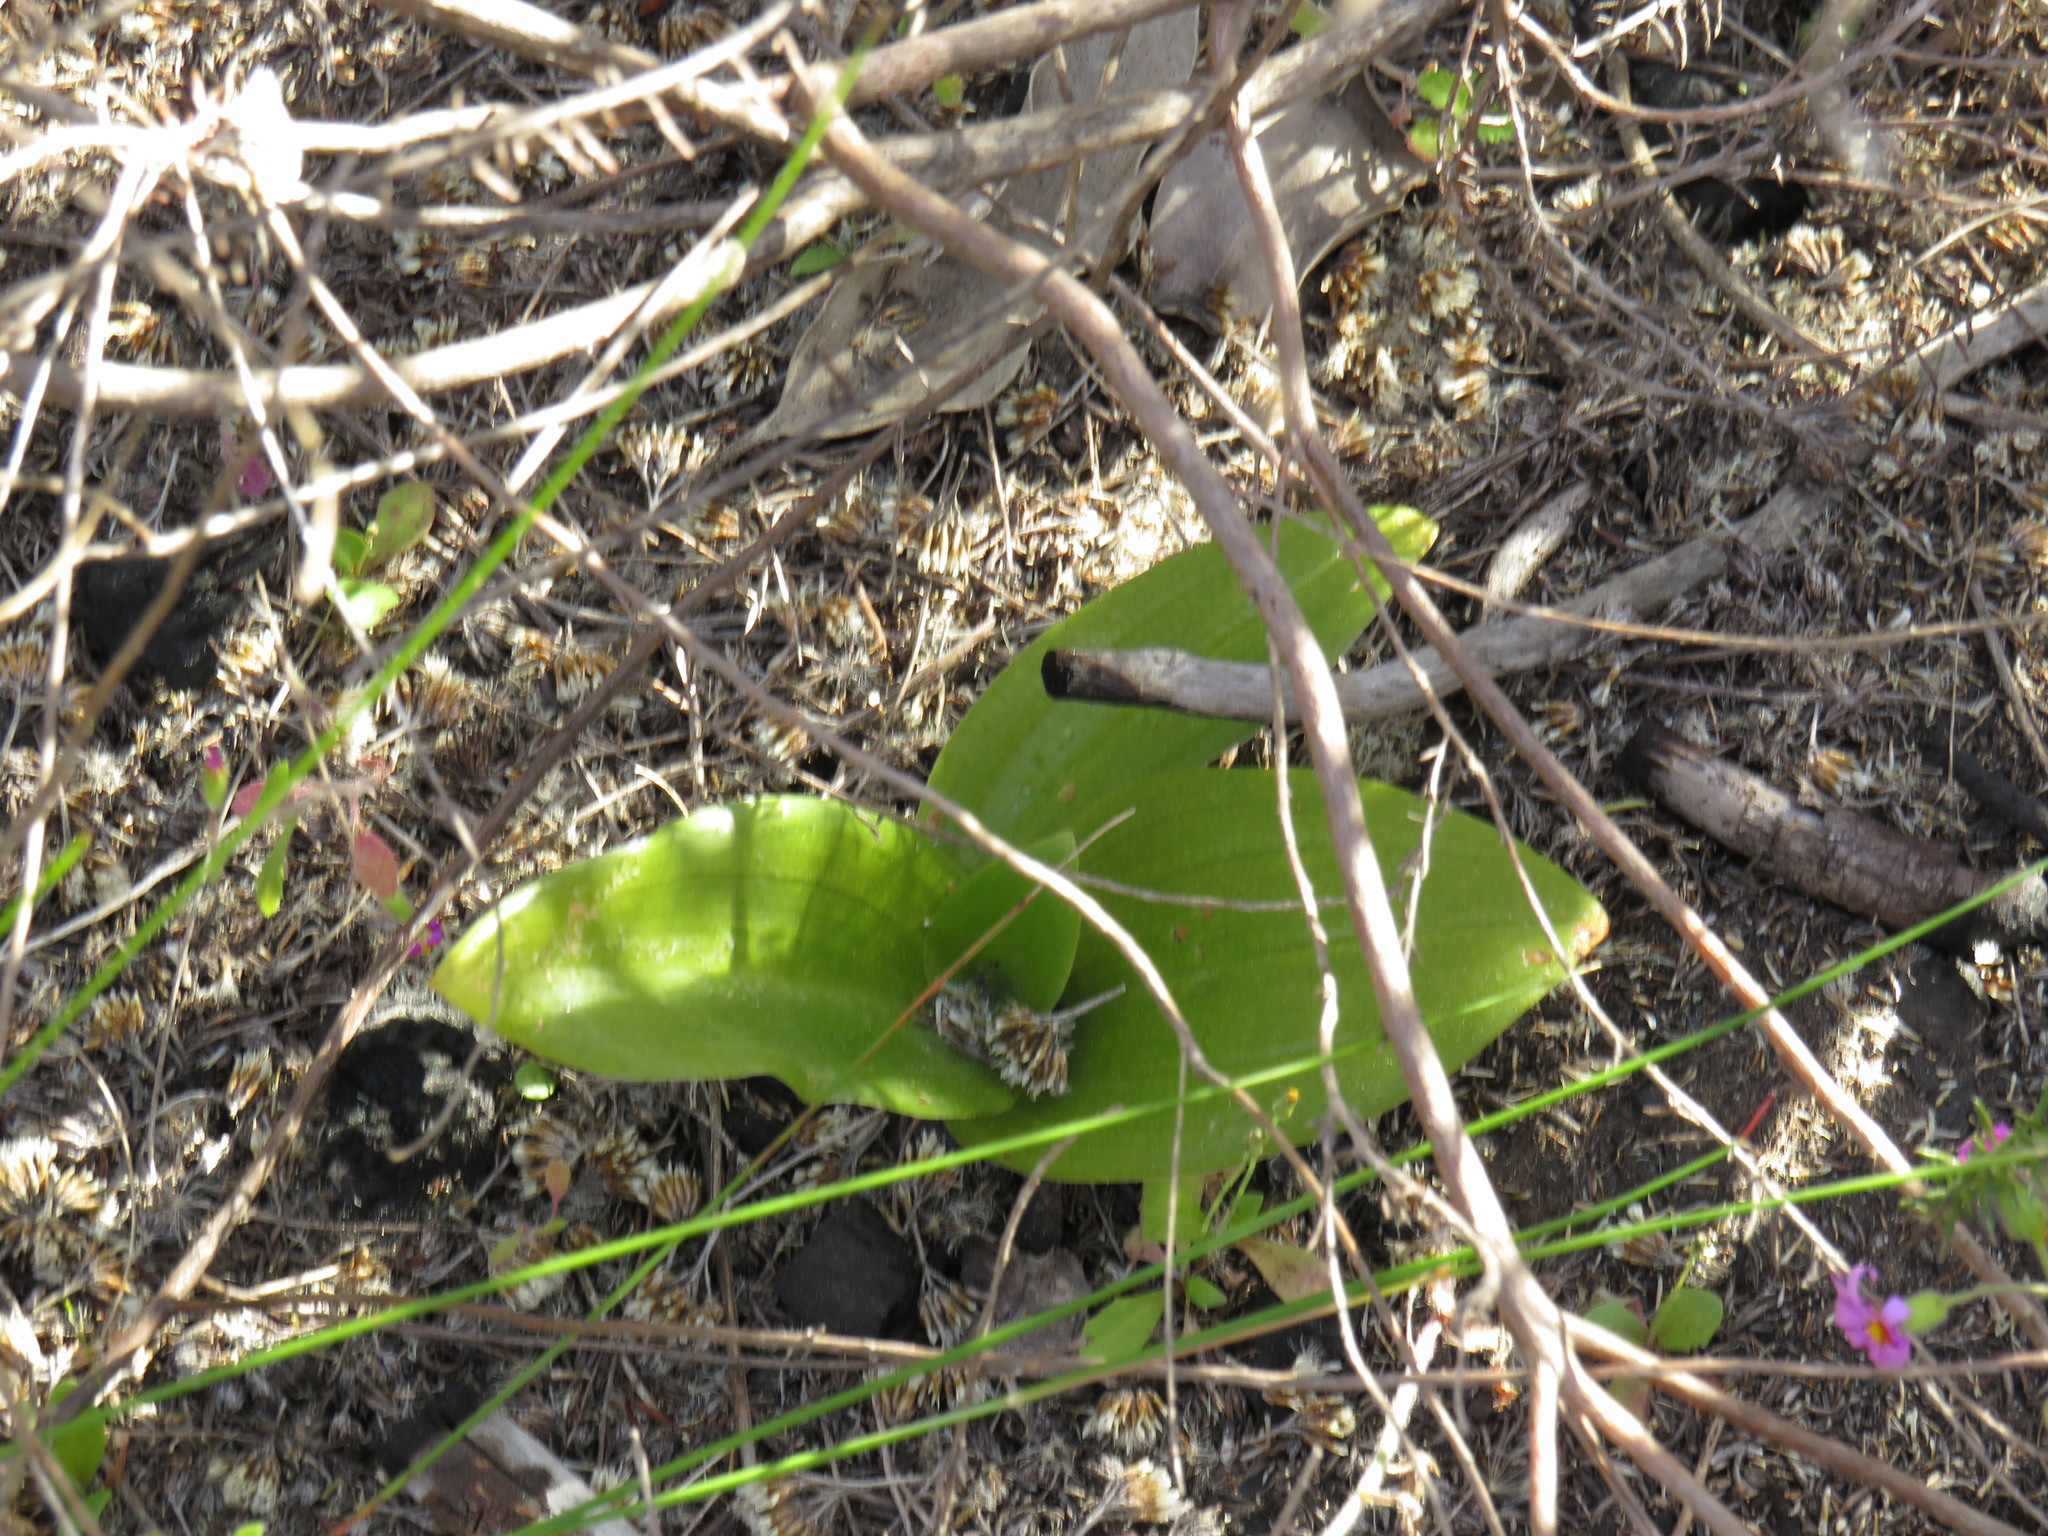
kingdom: Plantae
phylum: Tracheophyta
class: Liliopsida
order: Asparagales
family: Orchidaceae
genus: Satyrium
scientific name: Satyrium odorum
